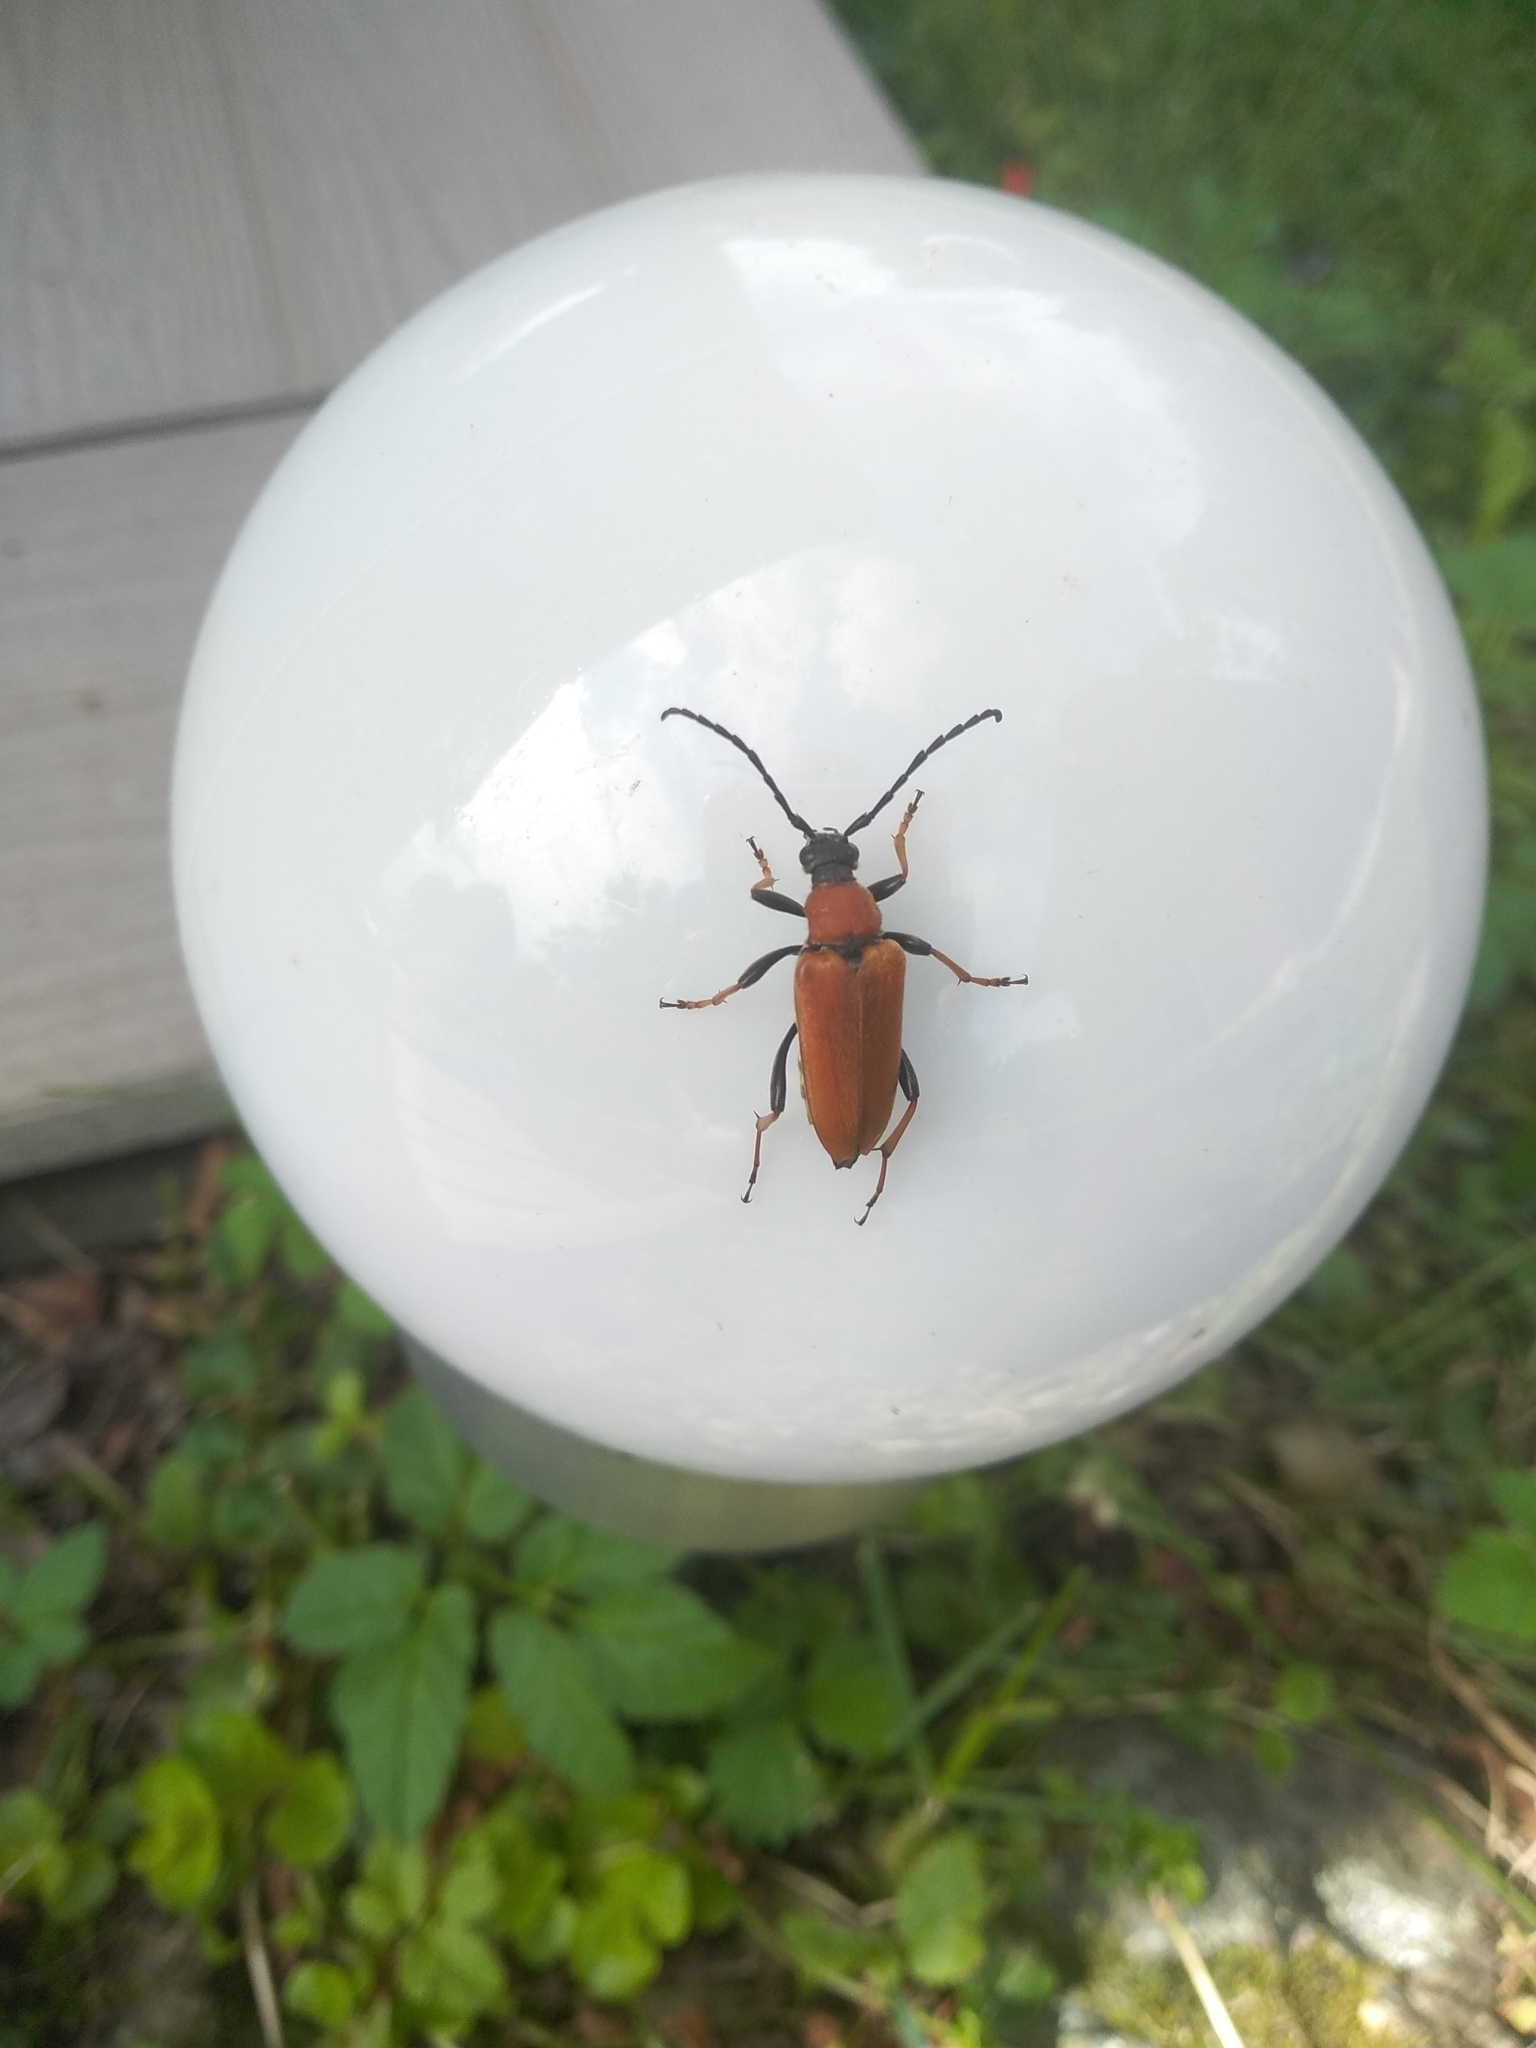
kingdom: Animalia
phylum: Arthropoda
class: Insecta
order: Coleoptera
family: Cerambycidae
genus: Stictoleptura
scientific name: Stictoleptura rubra
